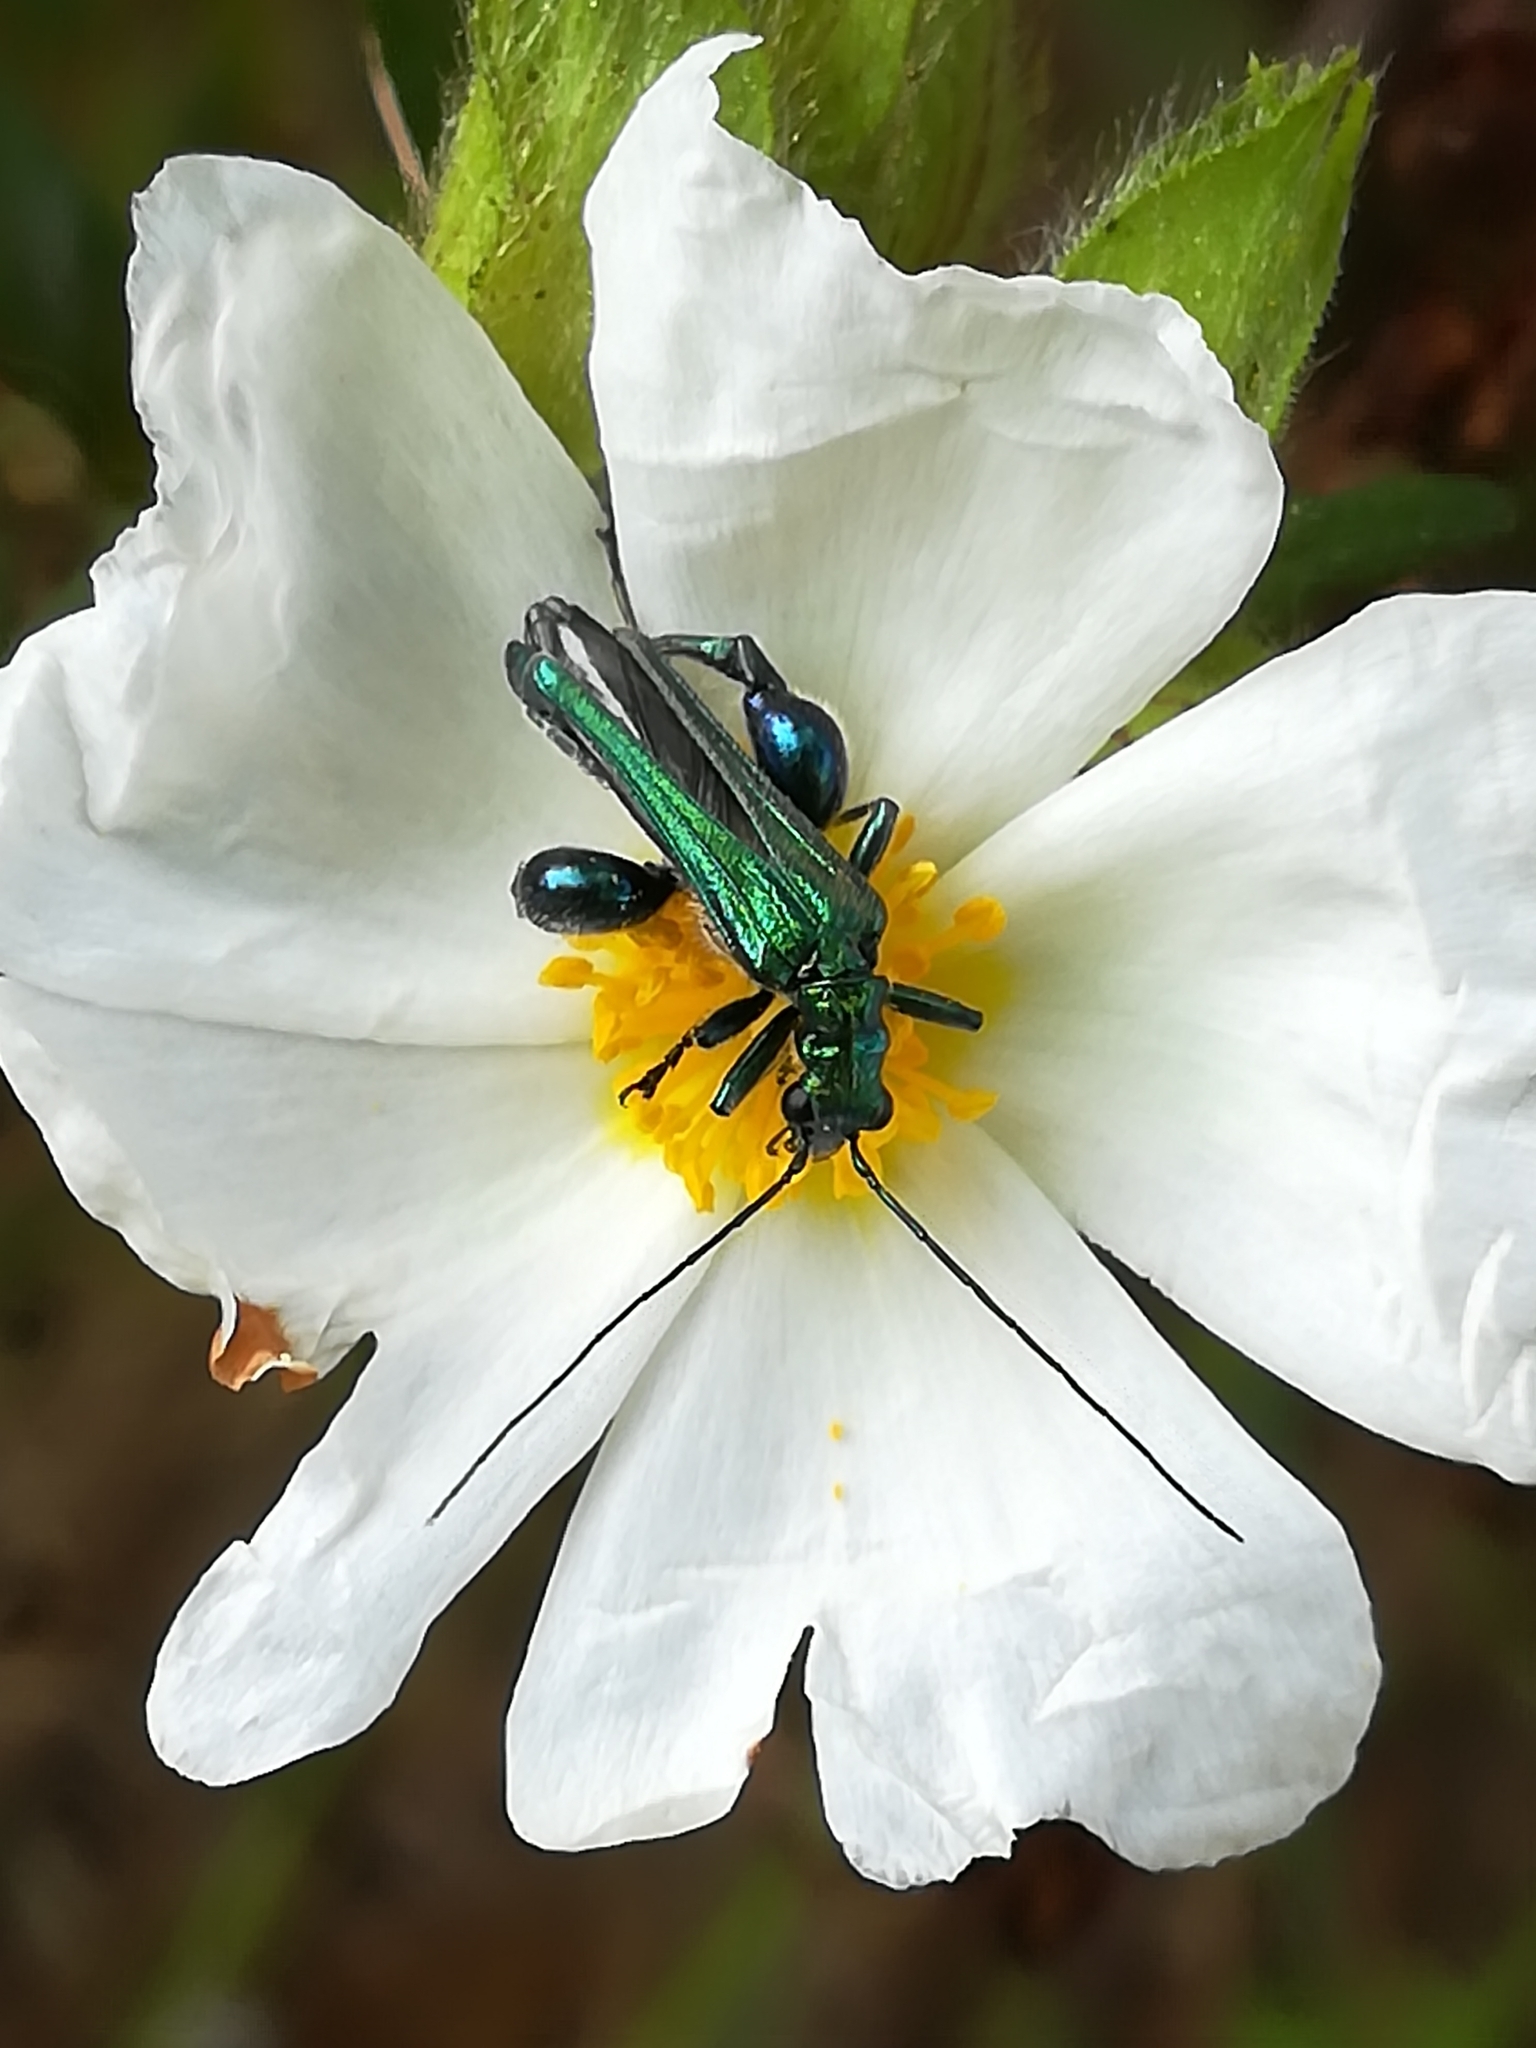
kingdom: Animalia
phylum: Arthropoda
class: Insecta
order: Coleoptera
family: Oedemeridae
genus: Oedemera
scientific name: Oedemera nobilis
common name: Swollen-thighed beetle
